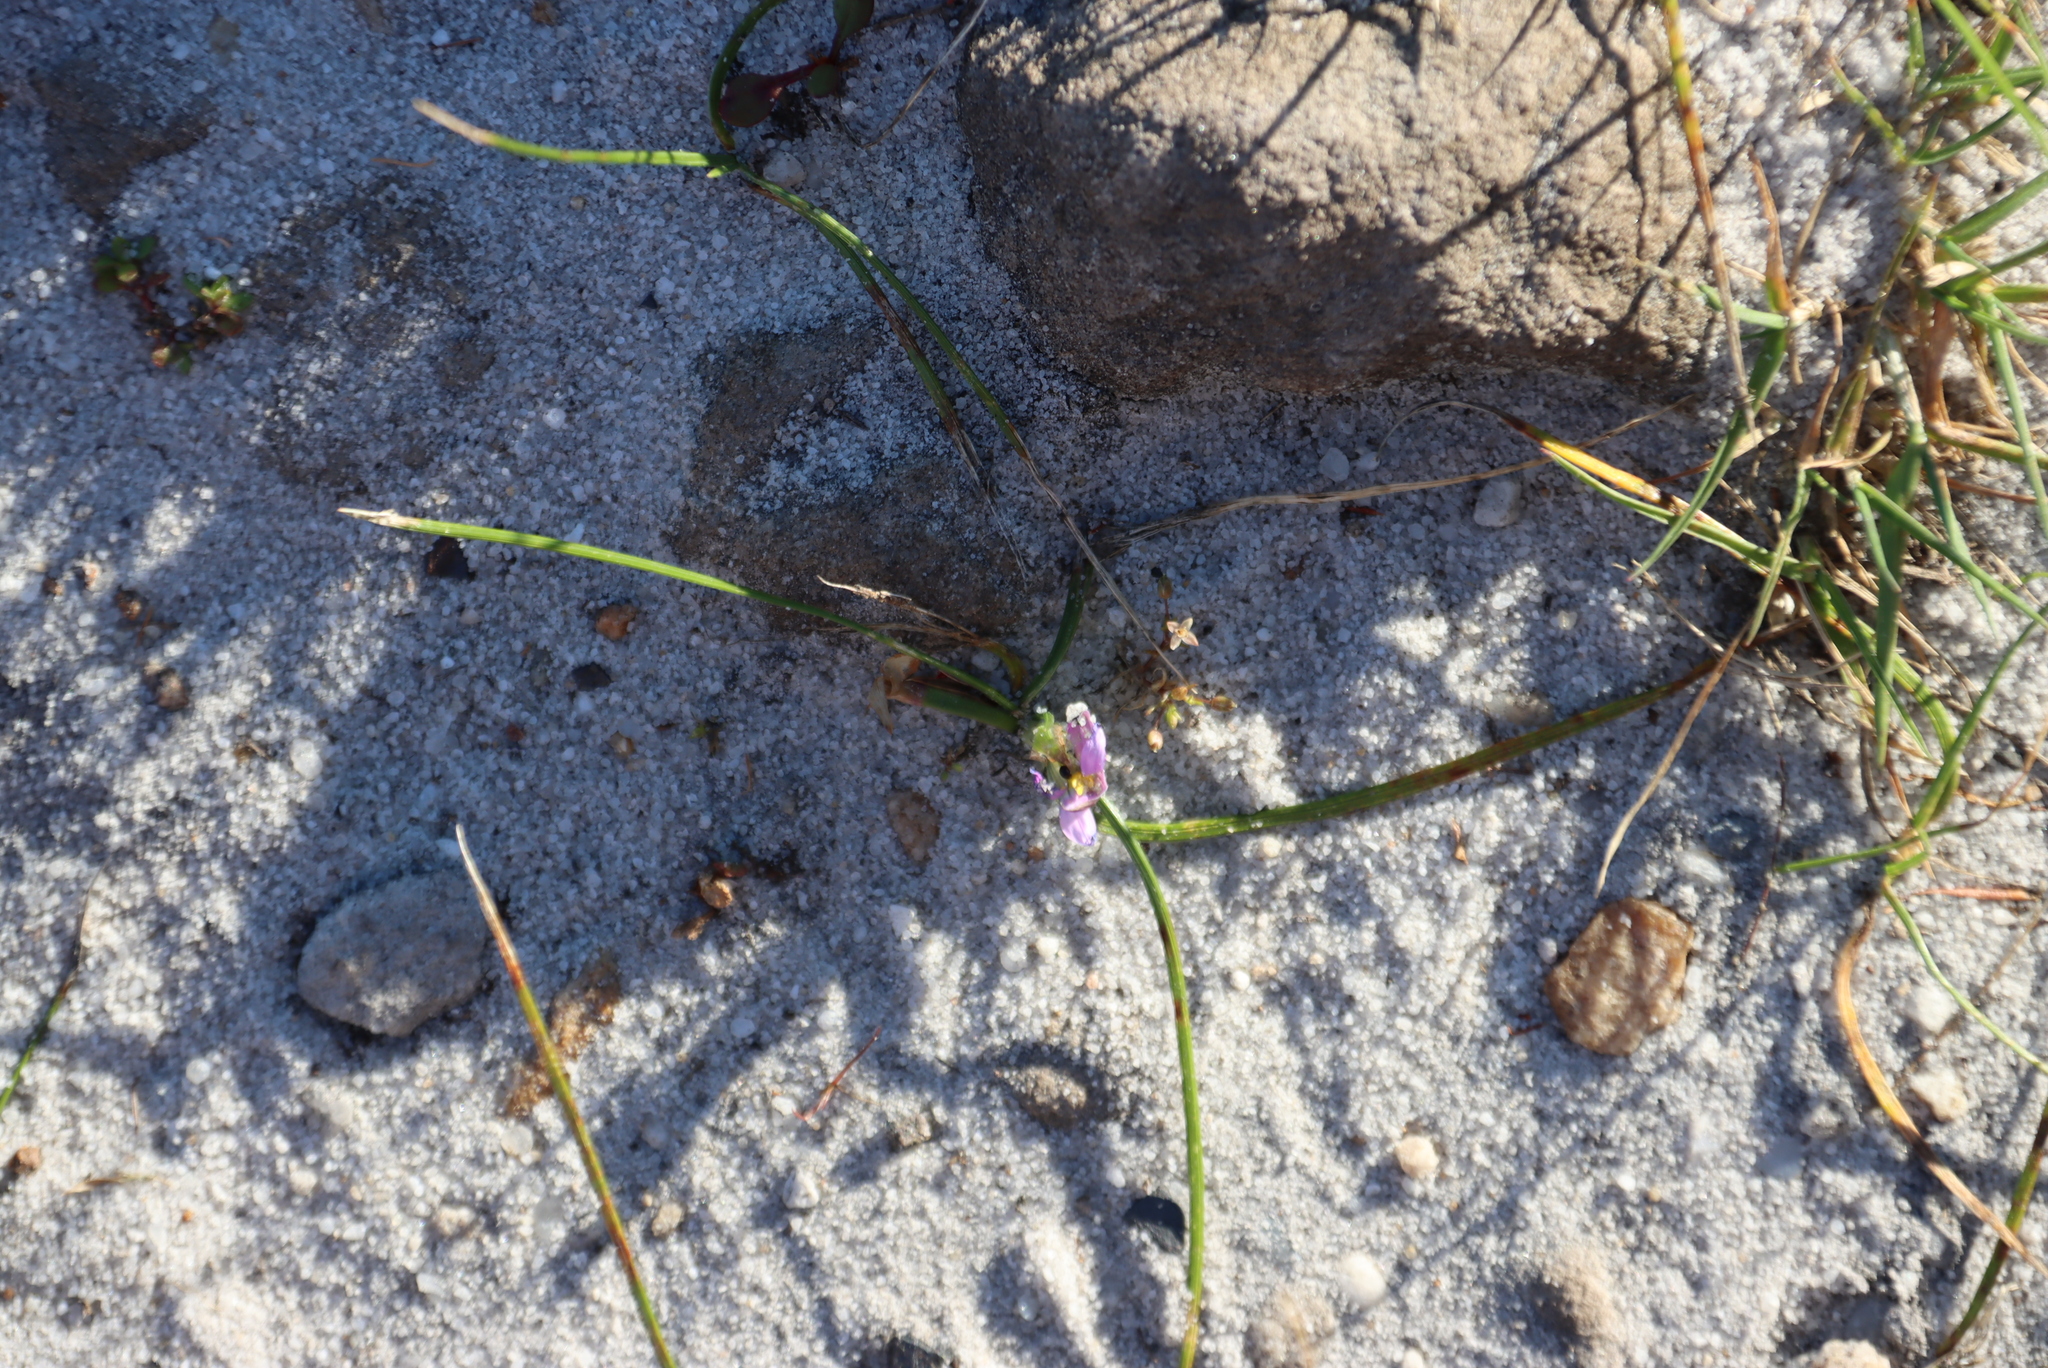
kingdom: Plantae
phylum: Tracheophyta
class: Liliopsida
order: Asparagales
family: Iridaceae
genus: Romulea
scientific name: Romulea rosea
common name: Oniongrass
